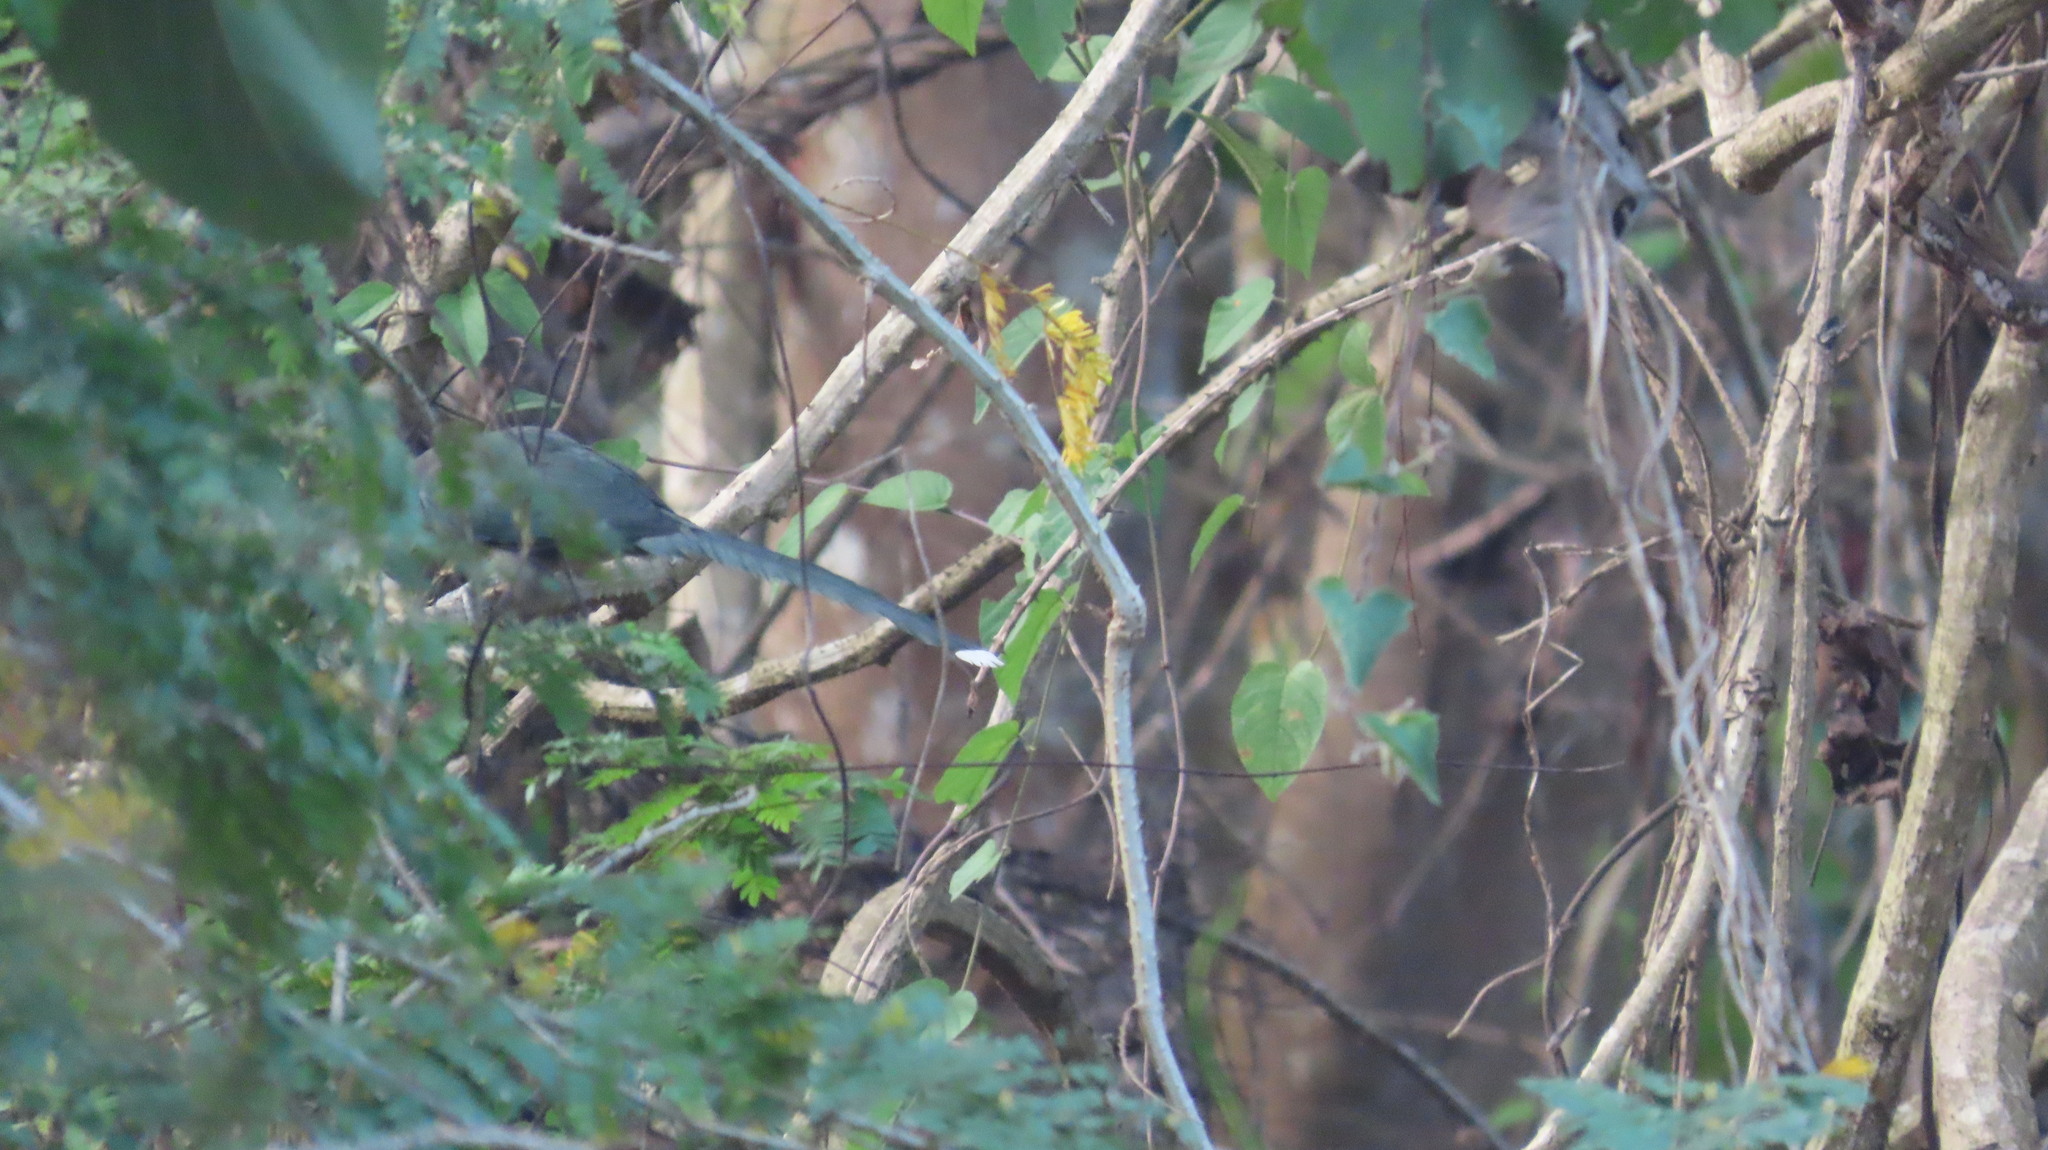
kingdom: Animalia
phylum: Chordata
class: Aves
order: Cuculiformes
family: Cuculidae
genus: Rhopodytes
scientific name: Rhopodytes viridirostris
